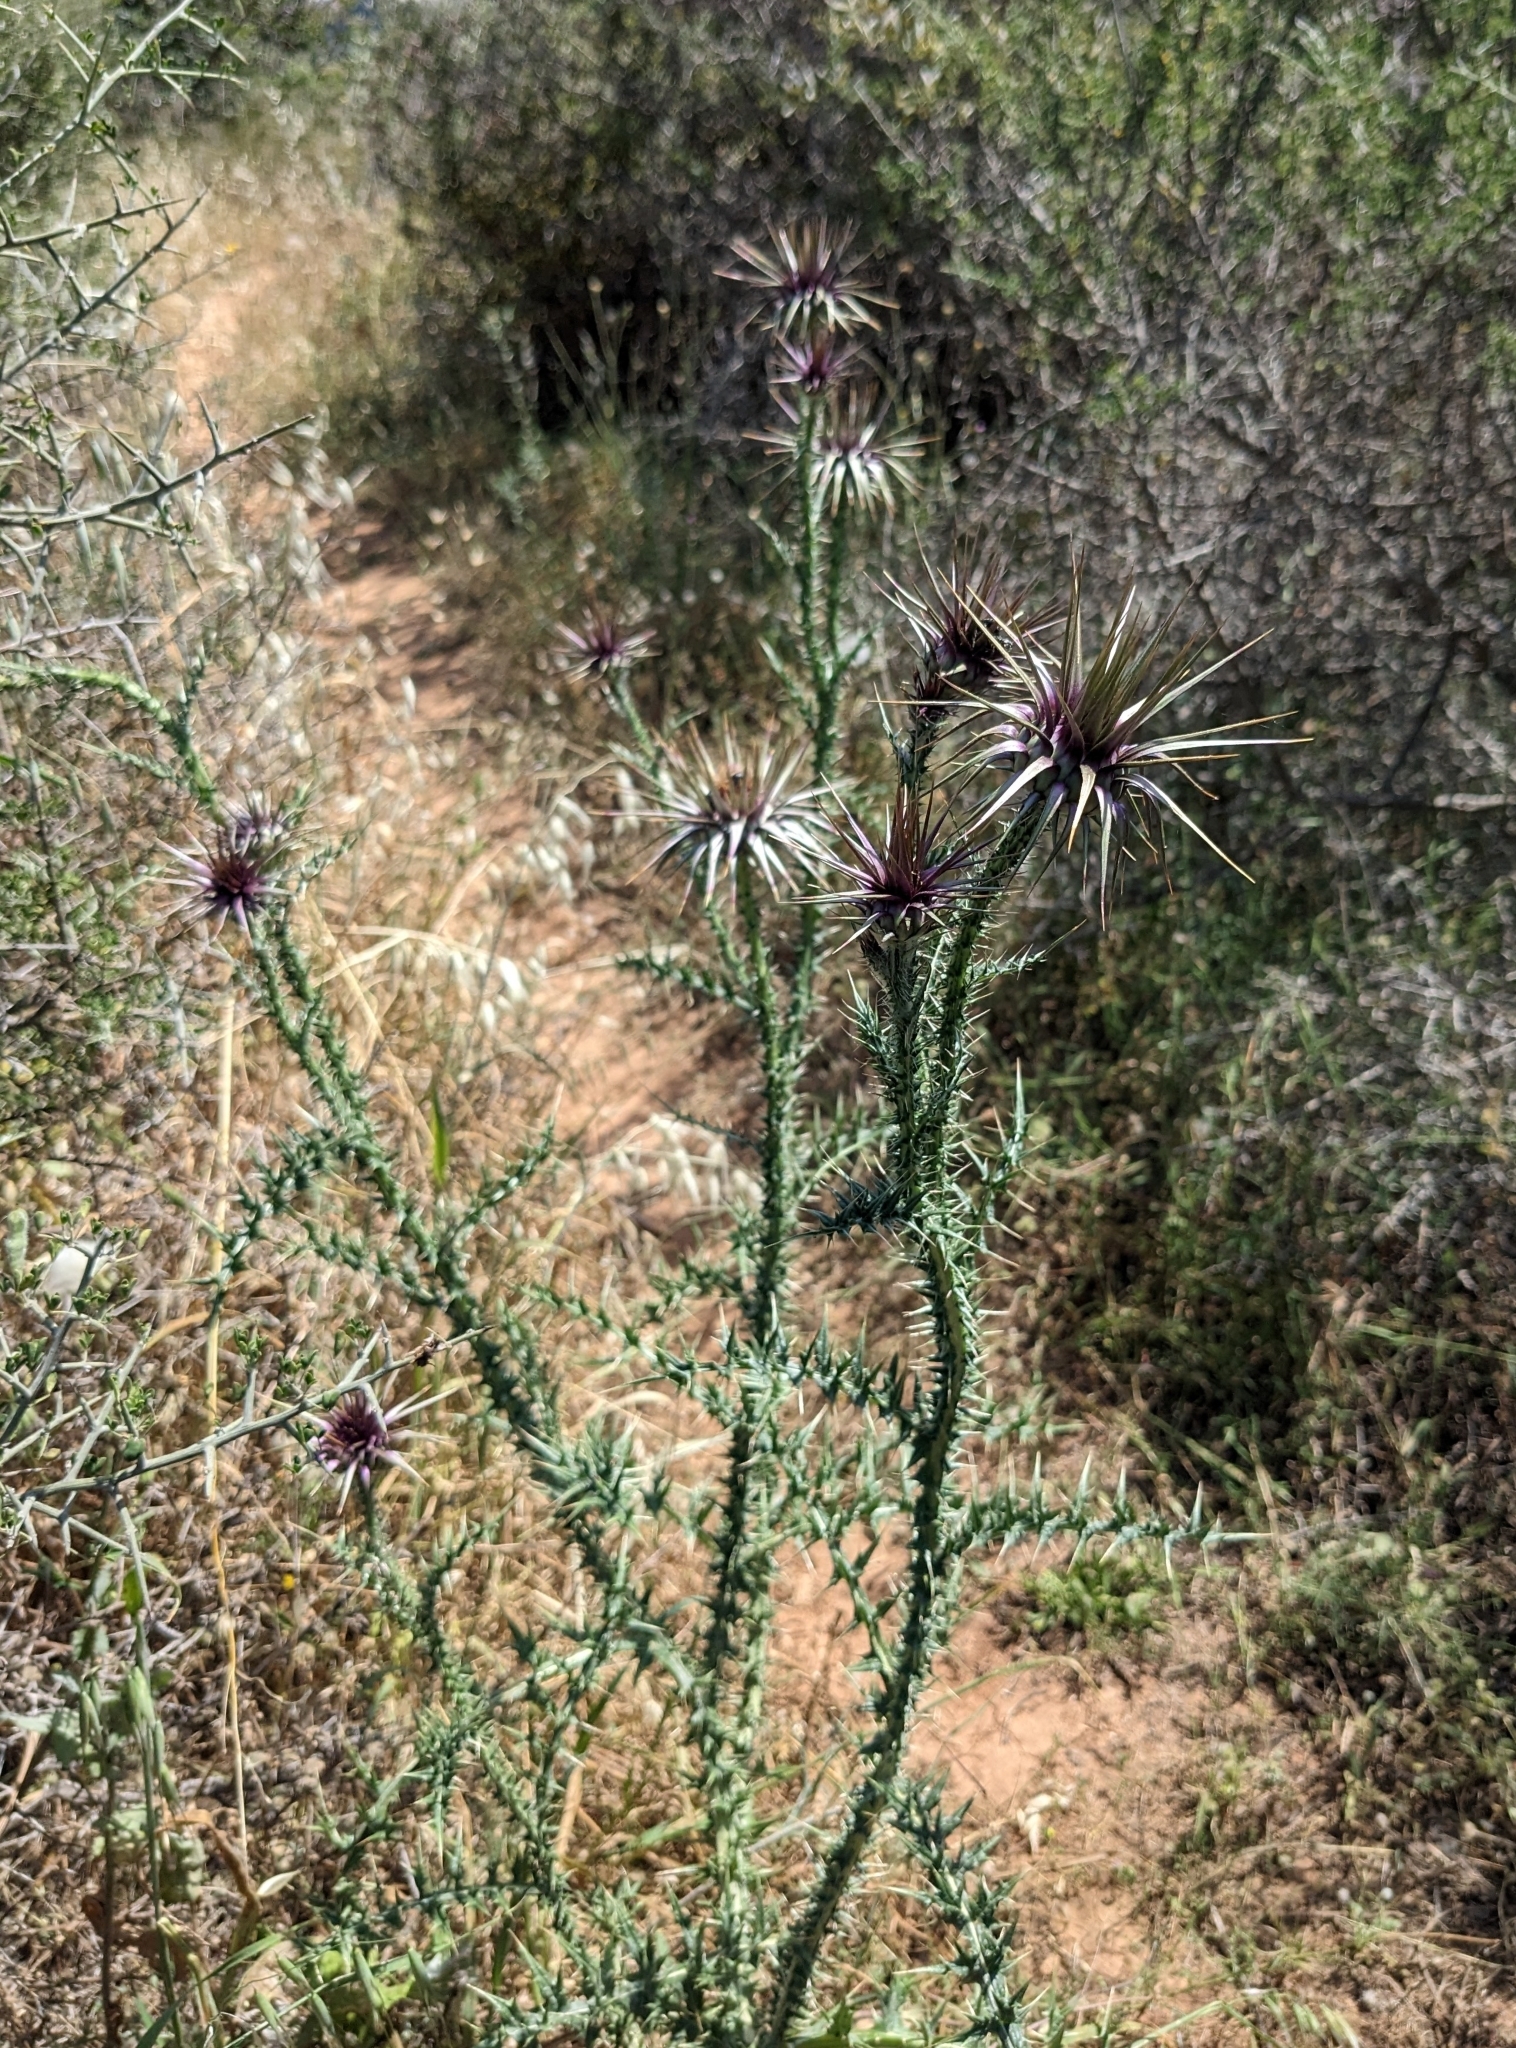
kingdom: Plantae
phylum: Tracheophyta
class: Magnoliopsida
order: Asterales
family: Asteraceae
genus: Onopordum
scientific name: Onopordum cyprium
